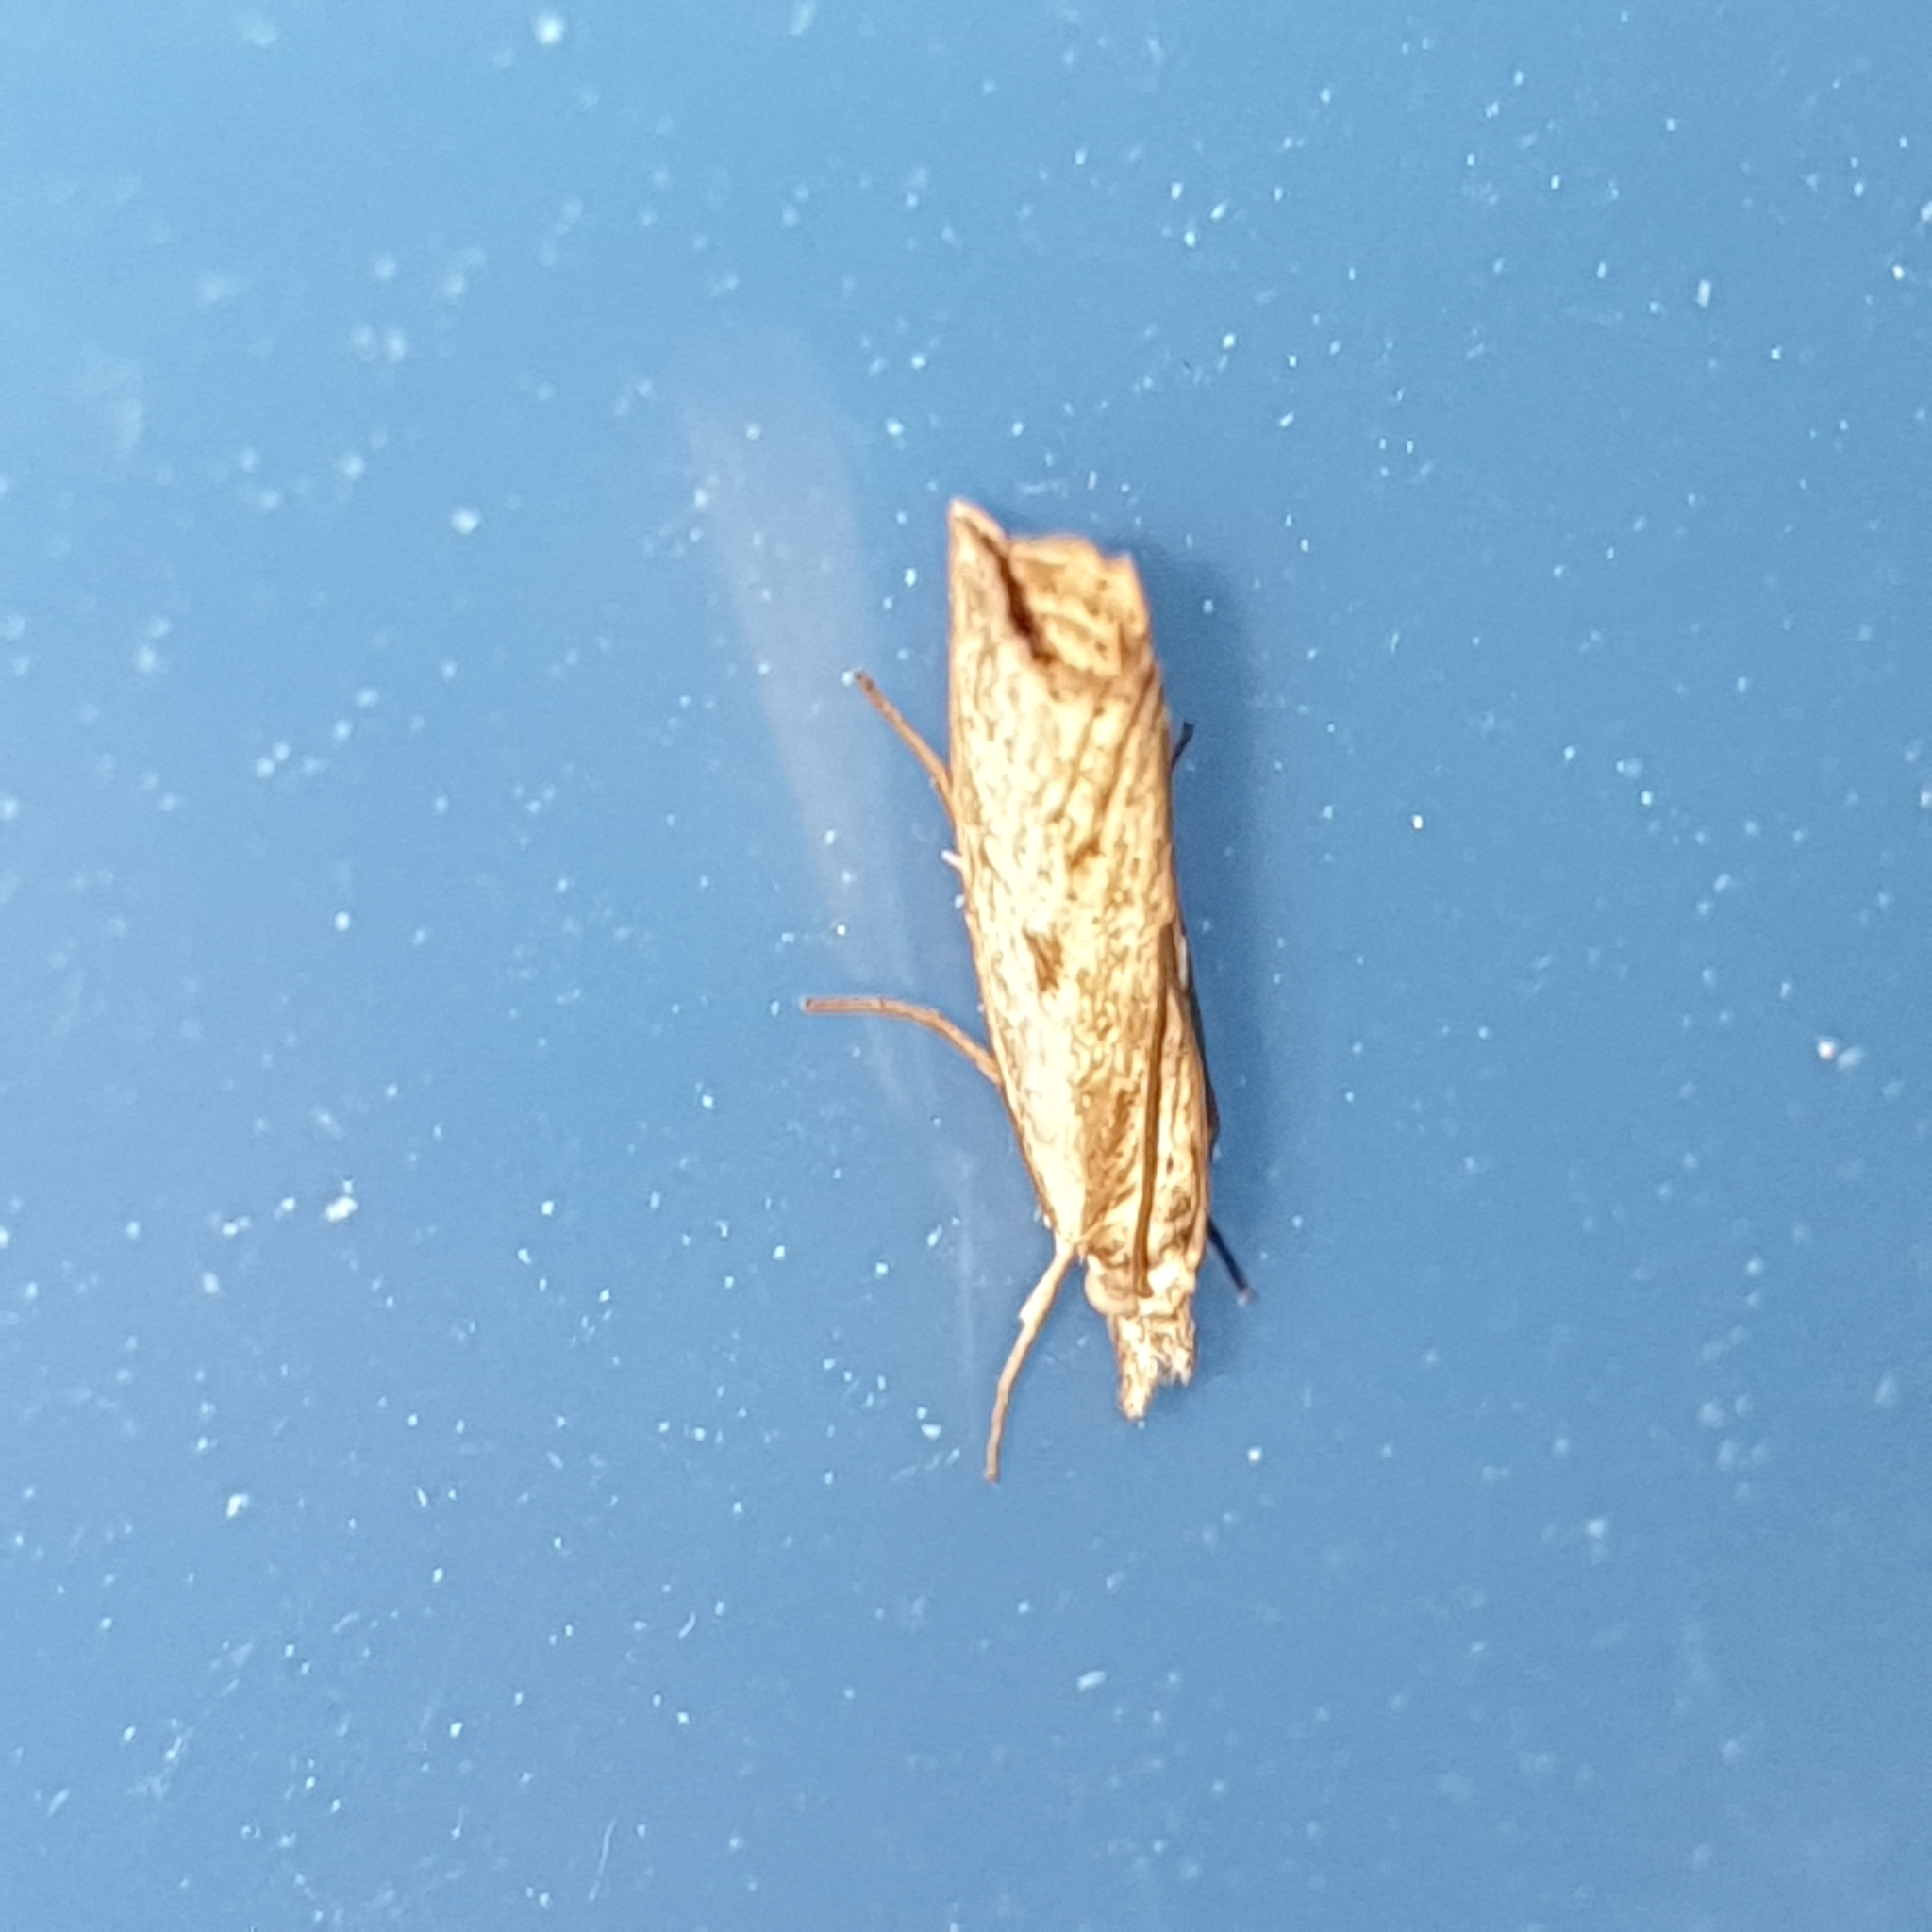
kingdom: Animalia
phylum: Arthropoda
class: Insecta
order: Lepidoptera
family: Crambidae
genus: Agriphila
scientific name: Agriphila inquinatella
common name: Barred grass-veneer
